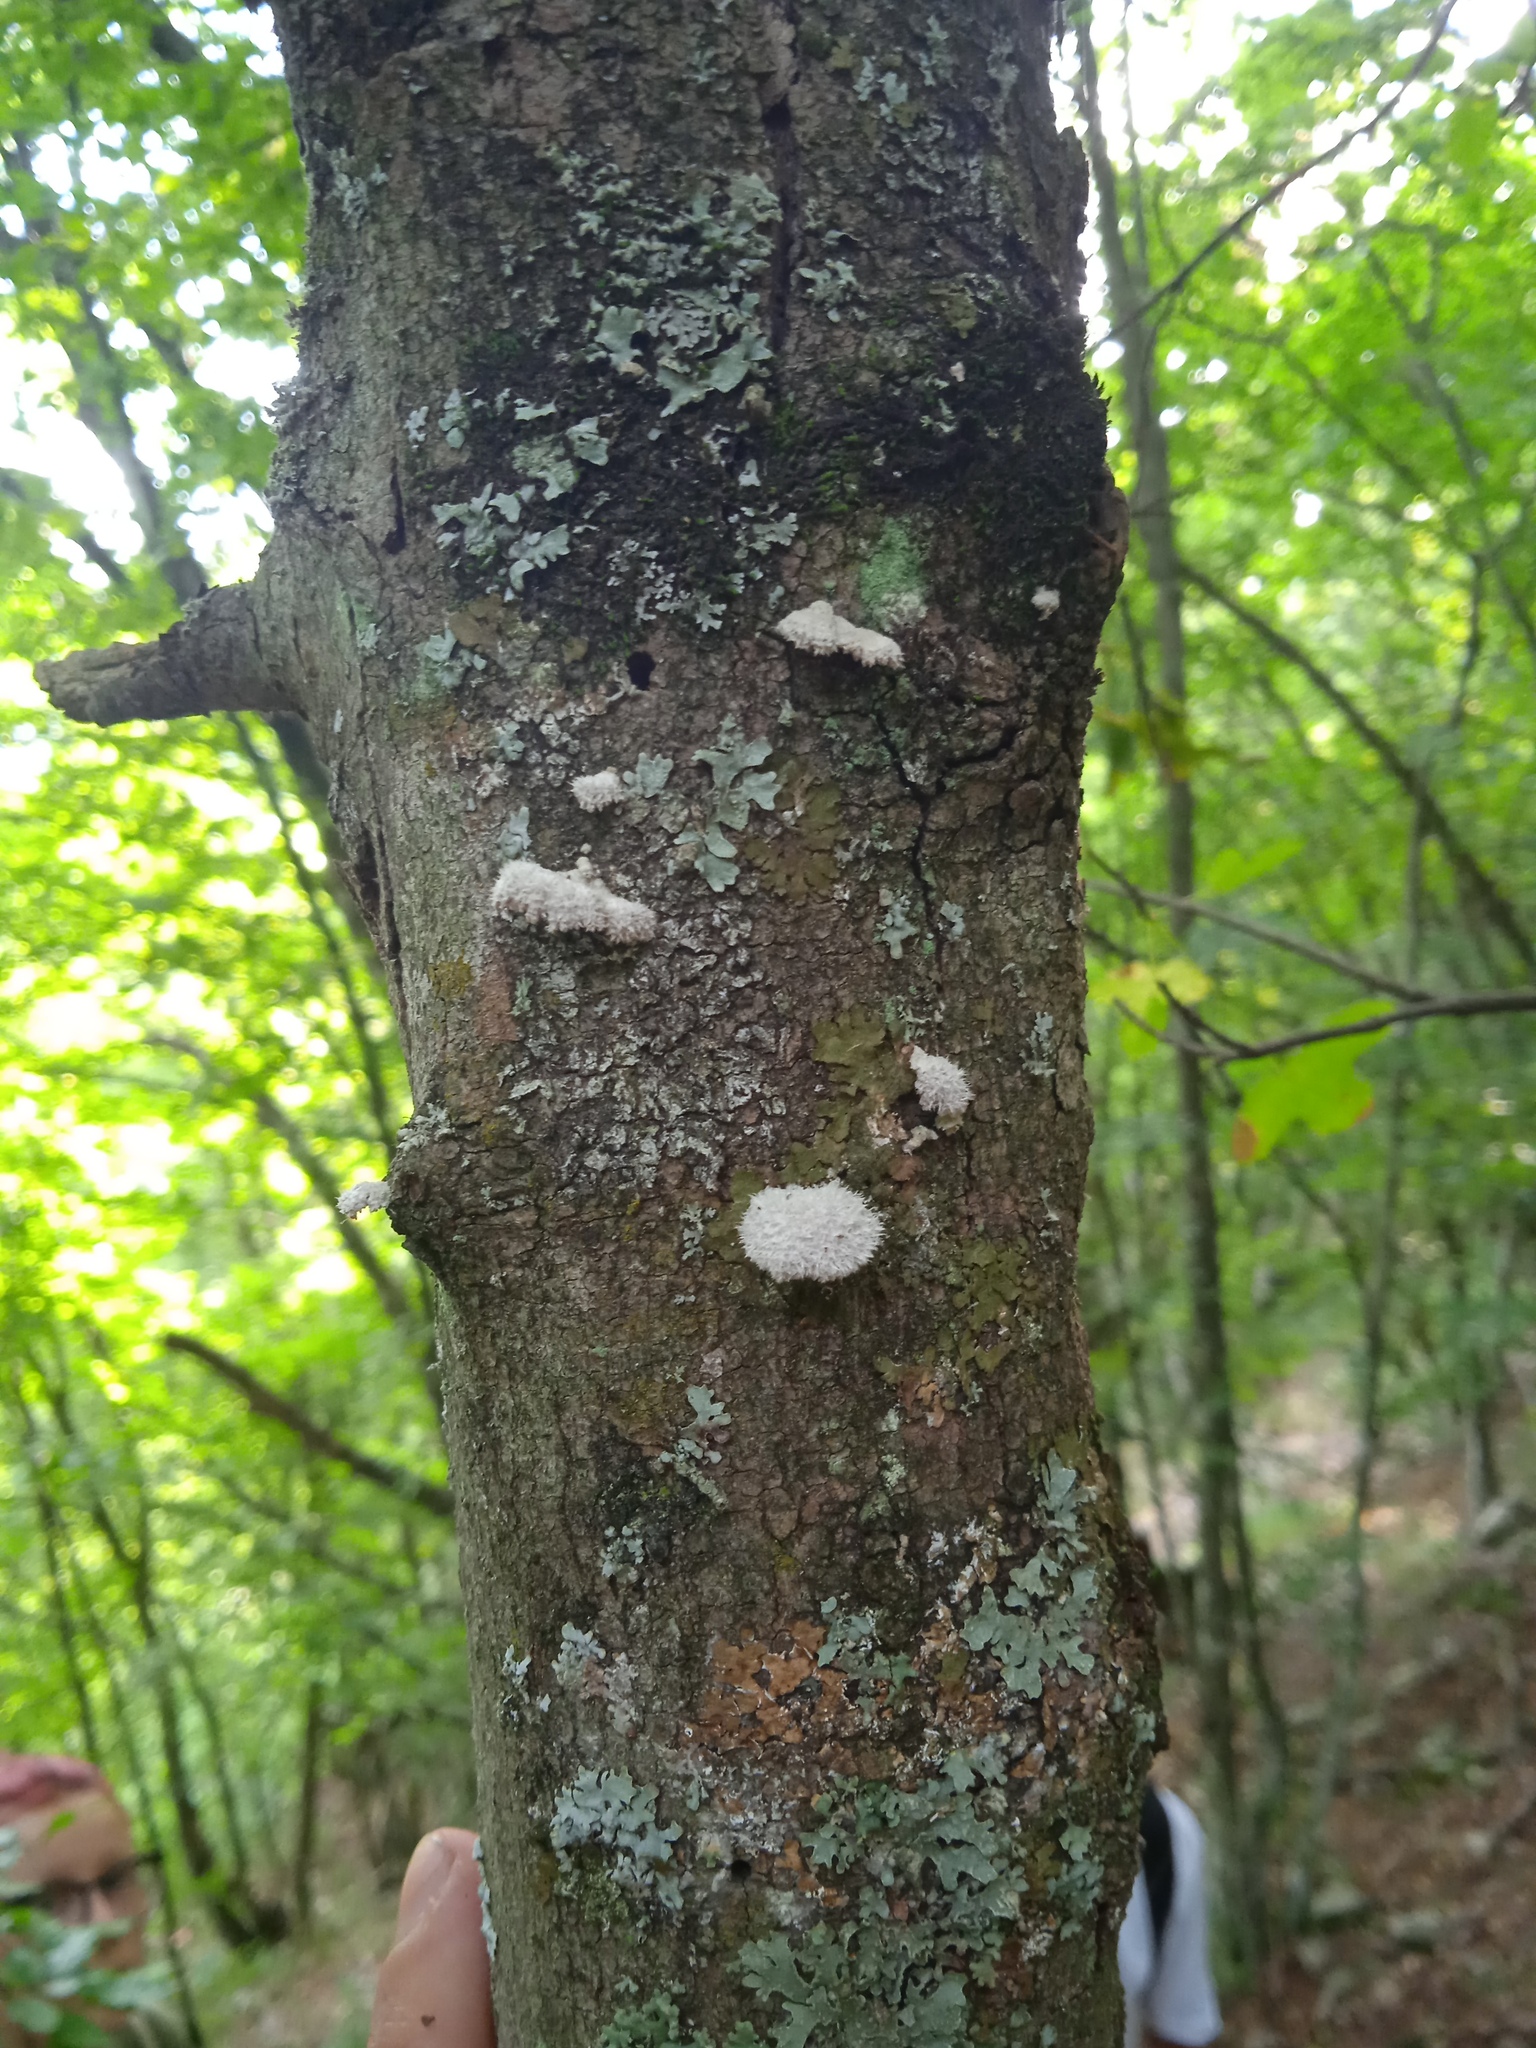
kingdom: Fungi
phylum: Basidiomycota
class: Agaricomycetes
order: Agaricales
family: Schizophyllaceae
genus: Schizophyllum
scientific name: Schizophyllum commune
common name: Common porecrust
